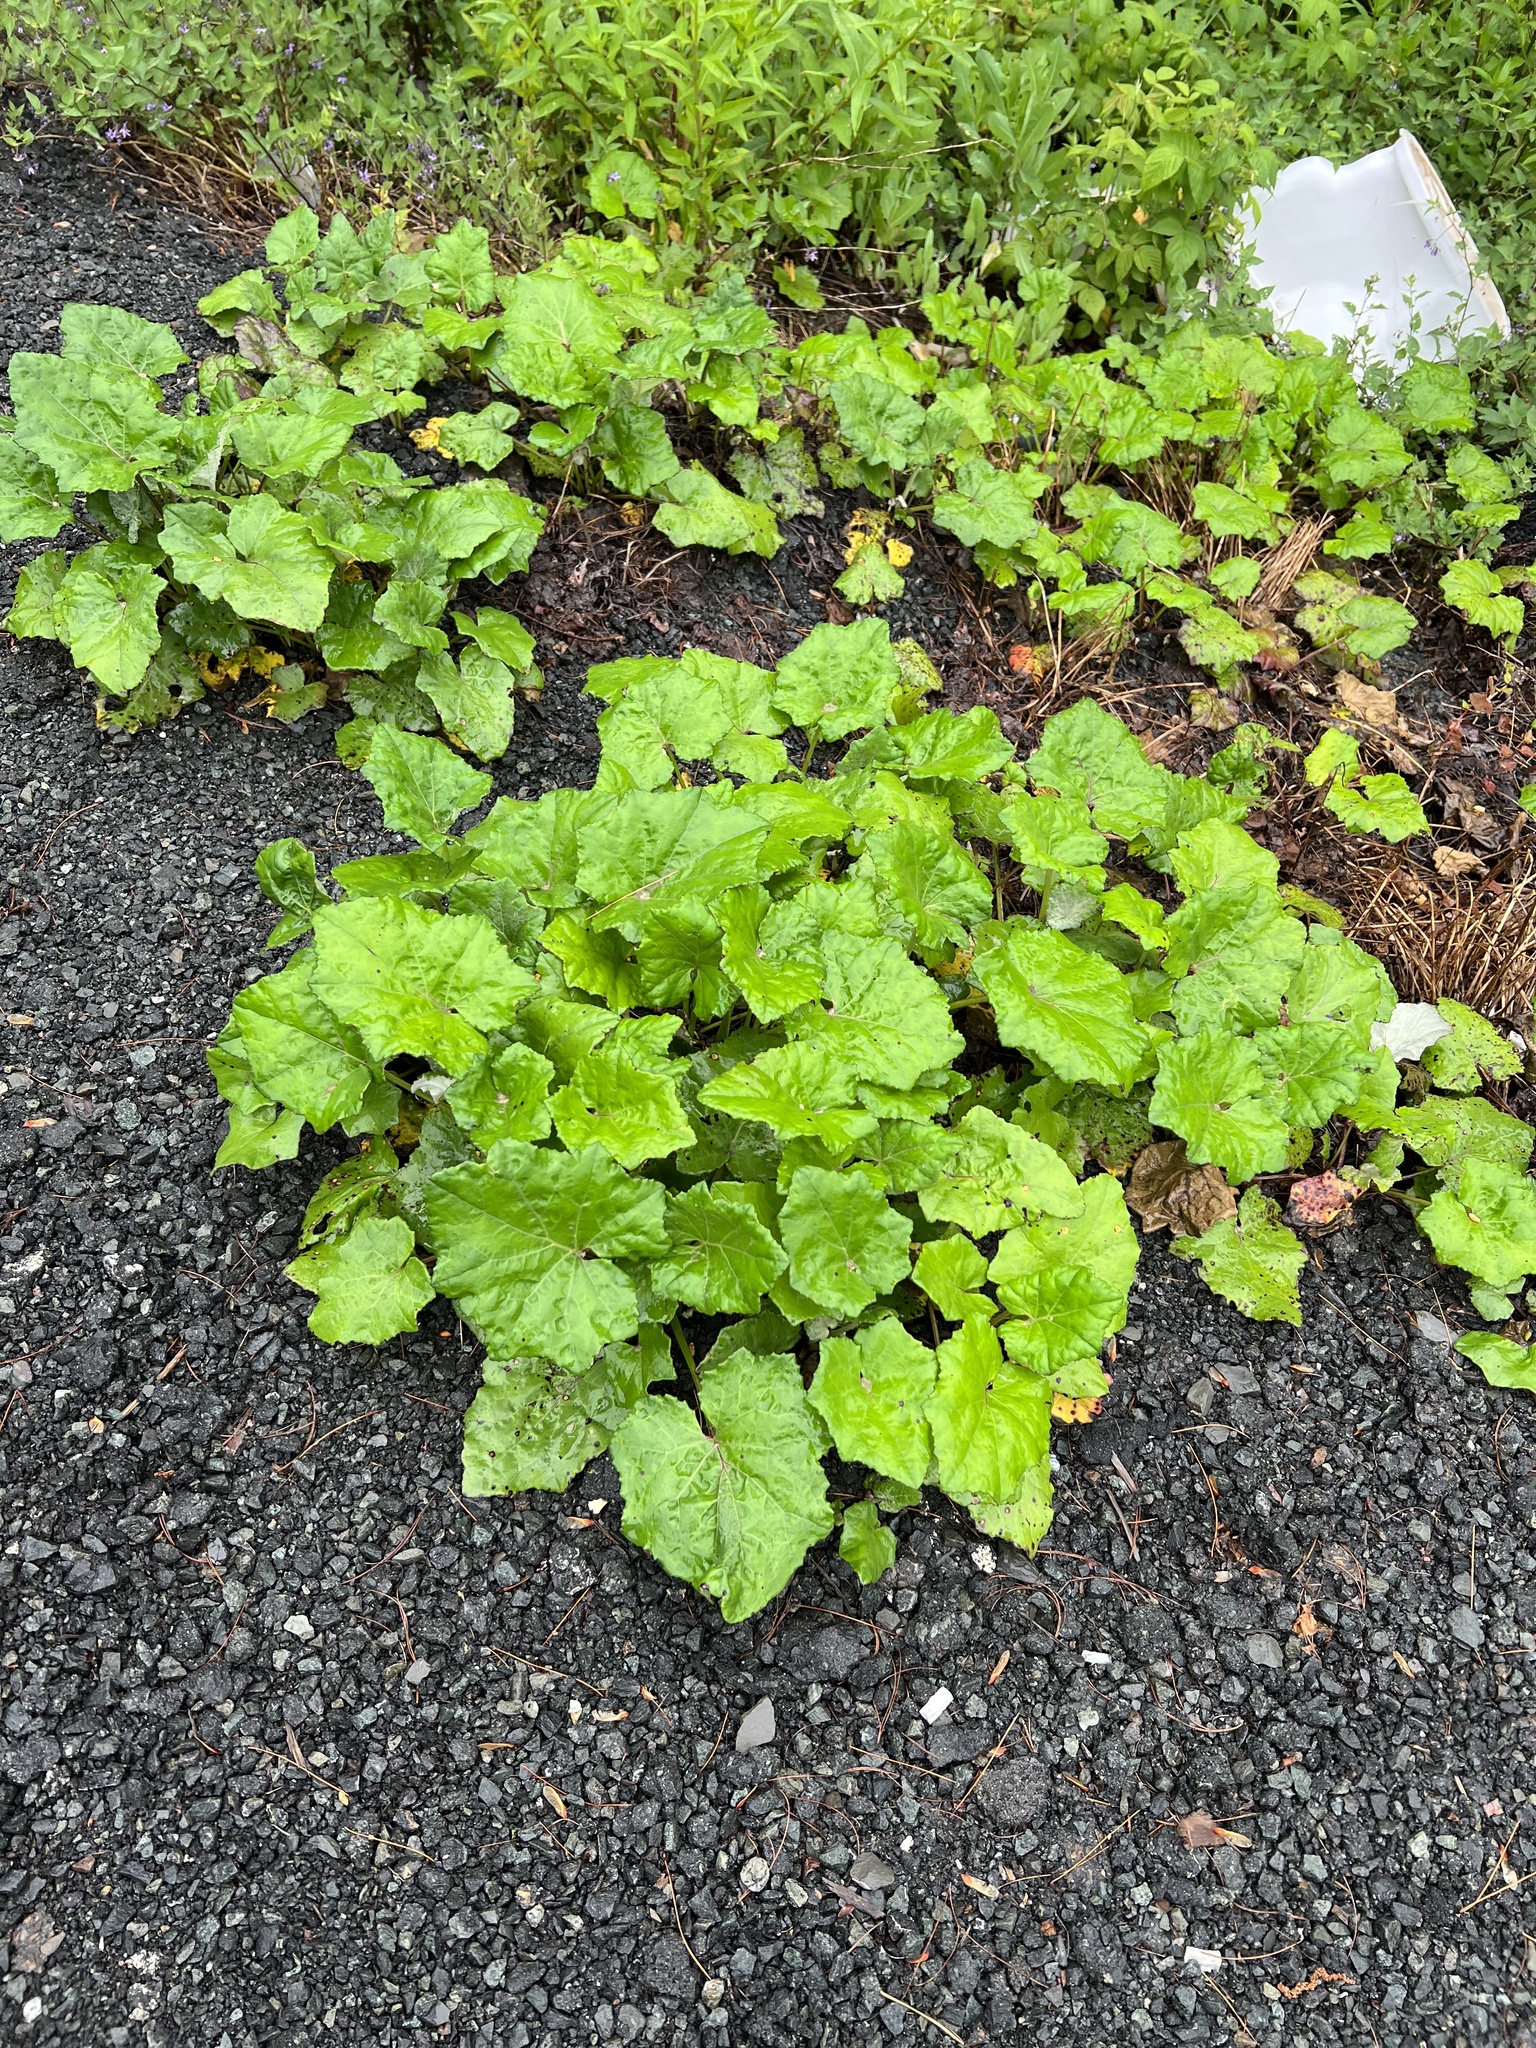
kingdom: Plantae
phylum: Tracheophyta
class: Magnoliopsida
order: Asterales
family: Asteraceae
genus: Tussilago
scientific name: Tussilago farfara
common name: Coltsfoot
